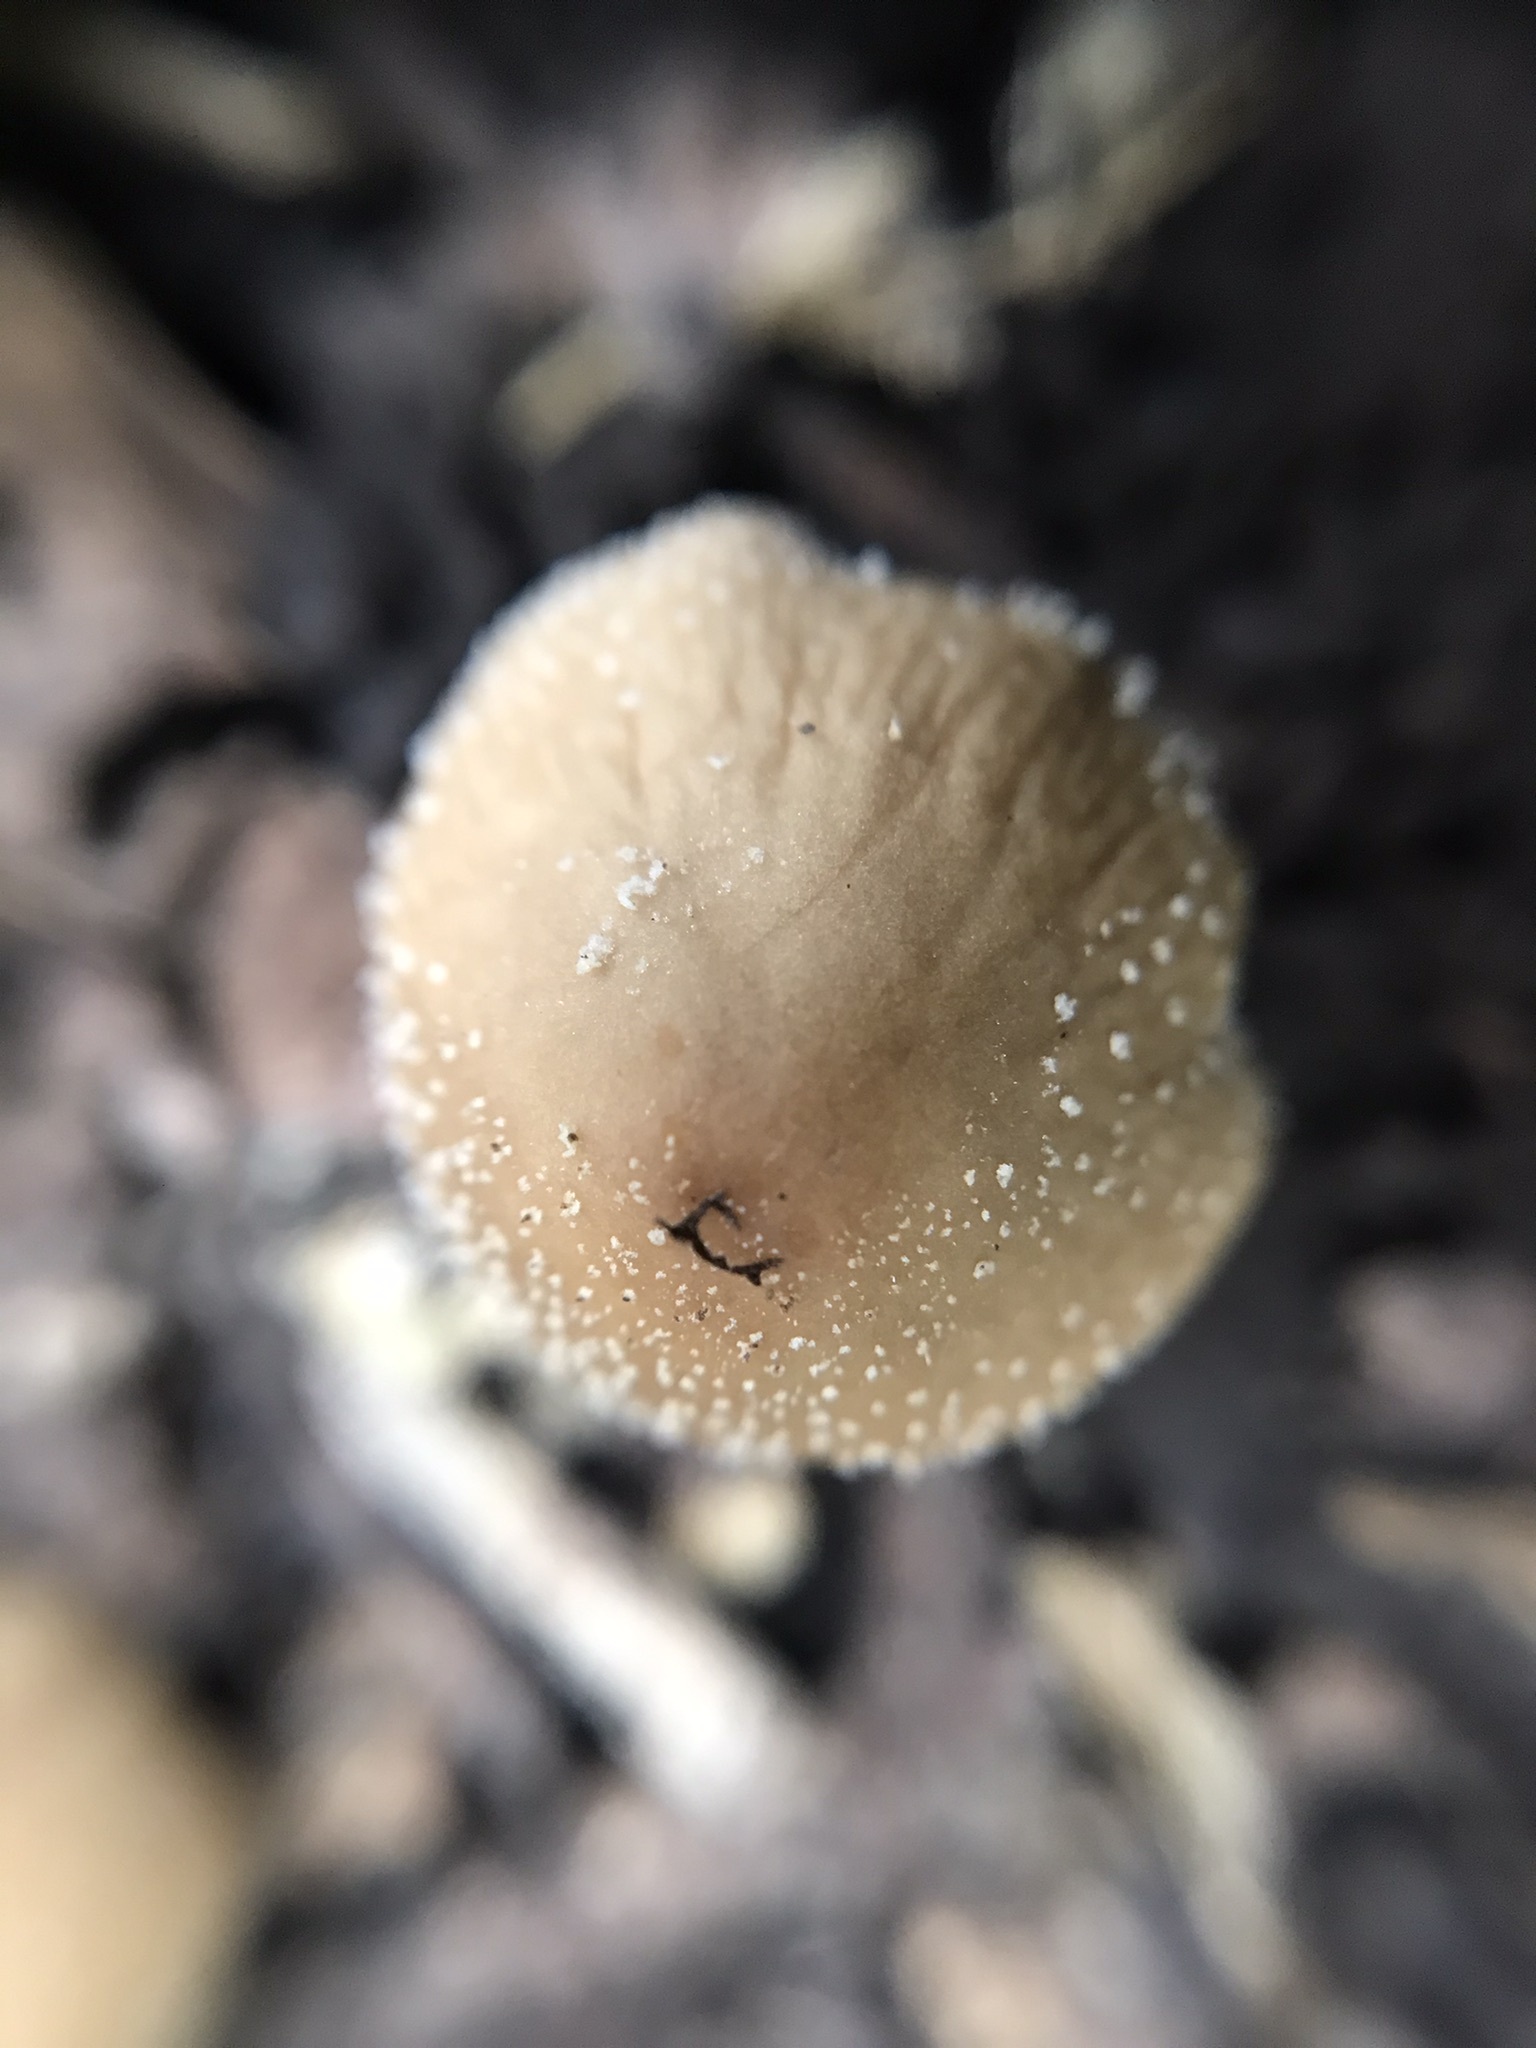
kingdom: Fungi
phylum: Basidiomycota
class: Agaricomycetes
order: Agaricales
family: Psathyrellaceae
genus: Coprinellus
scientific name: Coprinellus micaceus
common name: Glistening ink-cap
